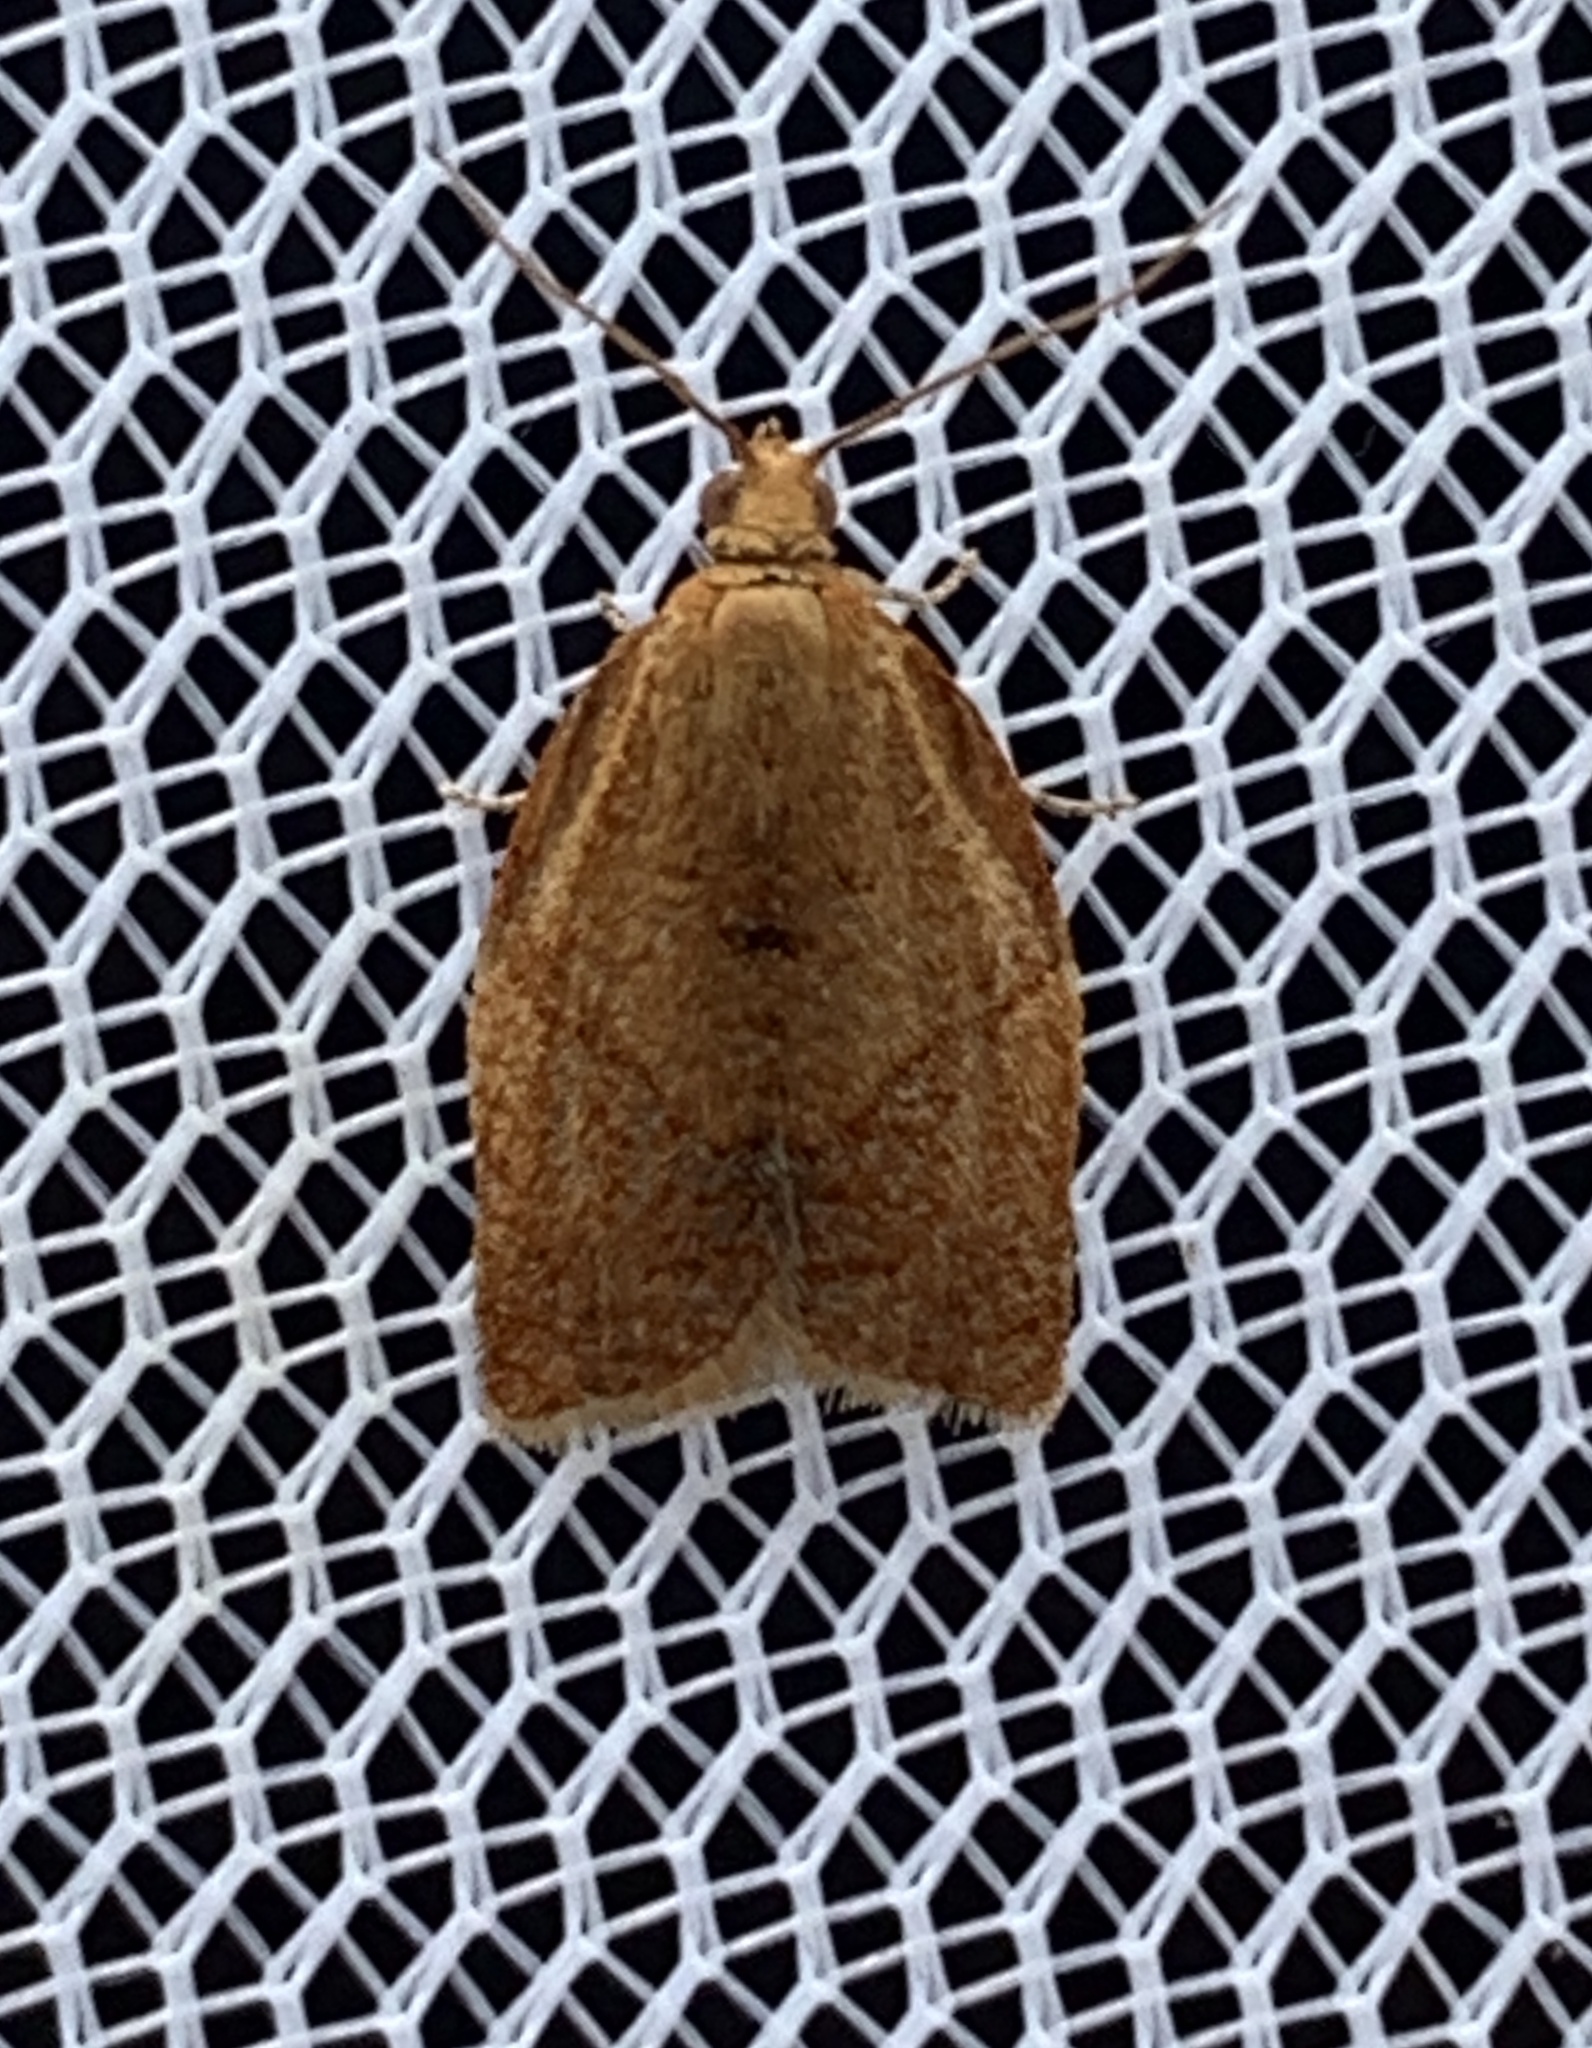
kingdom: Animalia
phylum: Arthropoda
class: Insecta
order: Lepidoptera
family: Tortricidae
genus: Clepsis
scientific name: Clepsis consimilana
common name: Privet tortrix
